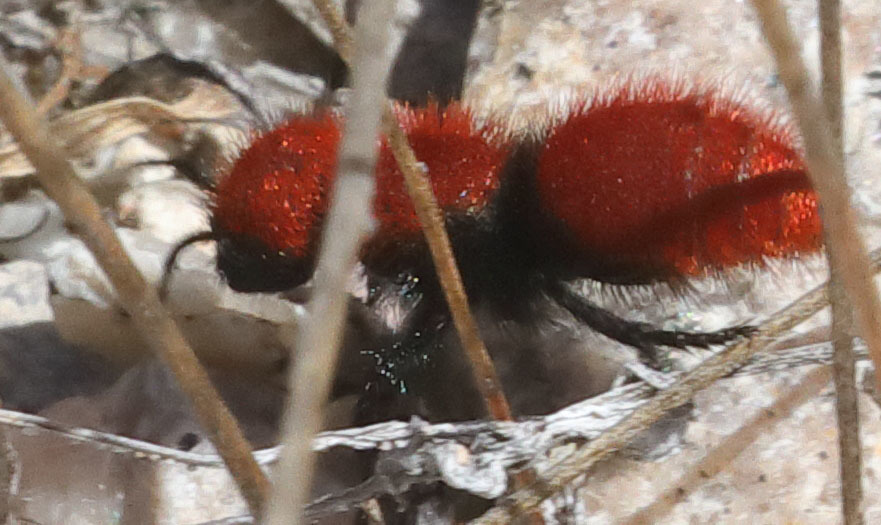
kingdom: Animalia
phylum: Arthropoda
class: Insecta
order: Hymenoptera
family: Mutillidae
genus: Dasymutilla
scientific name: Dasymutilla
